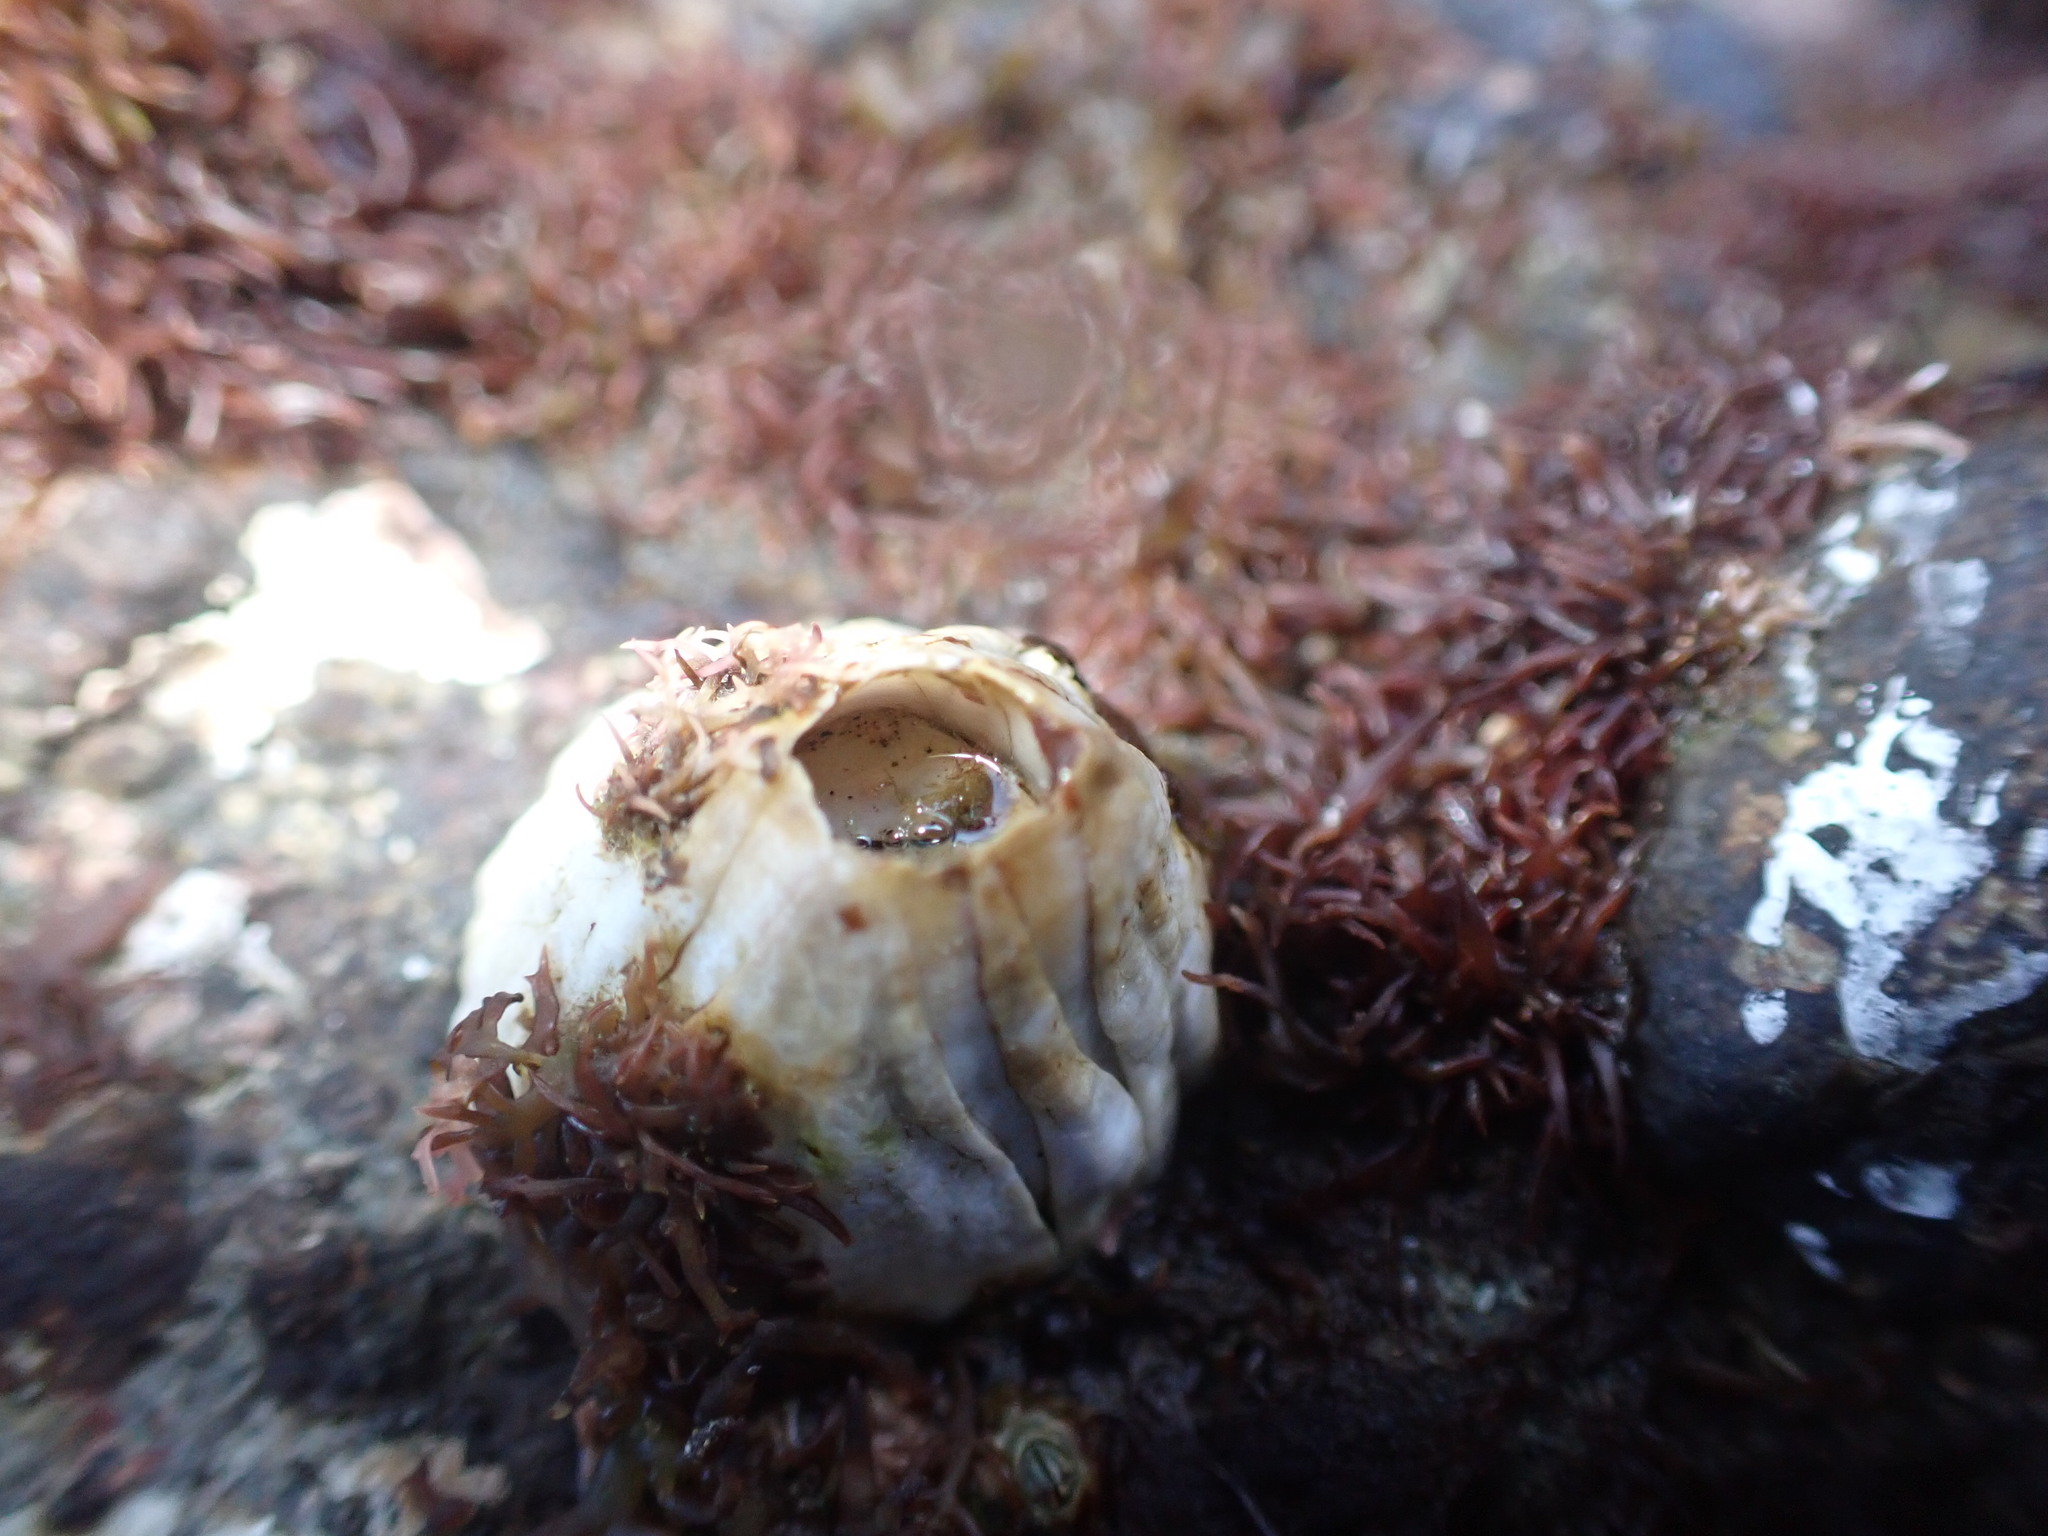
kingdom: Animalia
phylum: Arthropoda
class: Maxillopoda
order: Sessilia
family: Balanidae
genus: Austromegabalanus
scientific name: Austromegabalanus nigrescens
